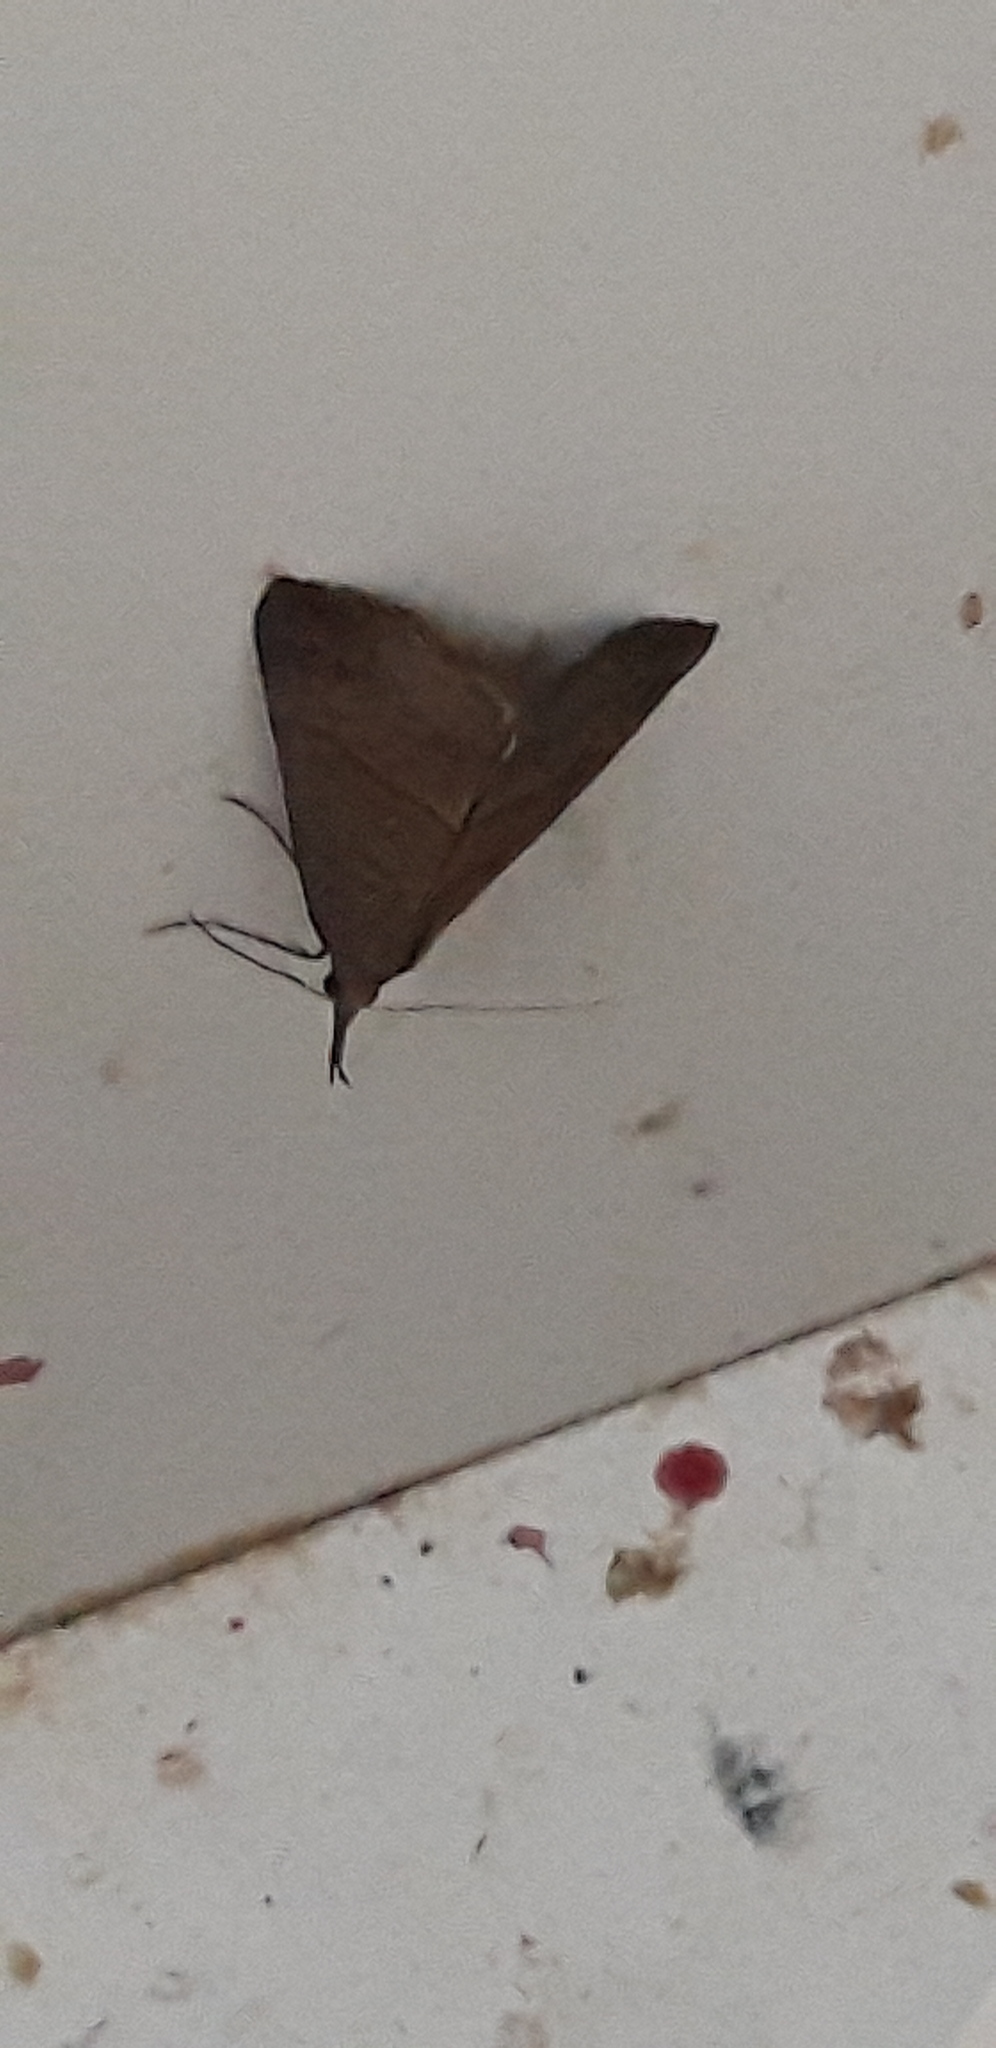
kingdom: Animalia
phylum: Arthropoda
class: Insecta
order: Lepidoptera
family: Erebidae
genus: Hypena
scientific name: Hypena proboscidalis
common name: Snout
